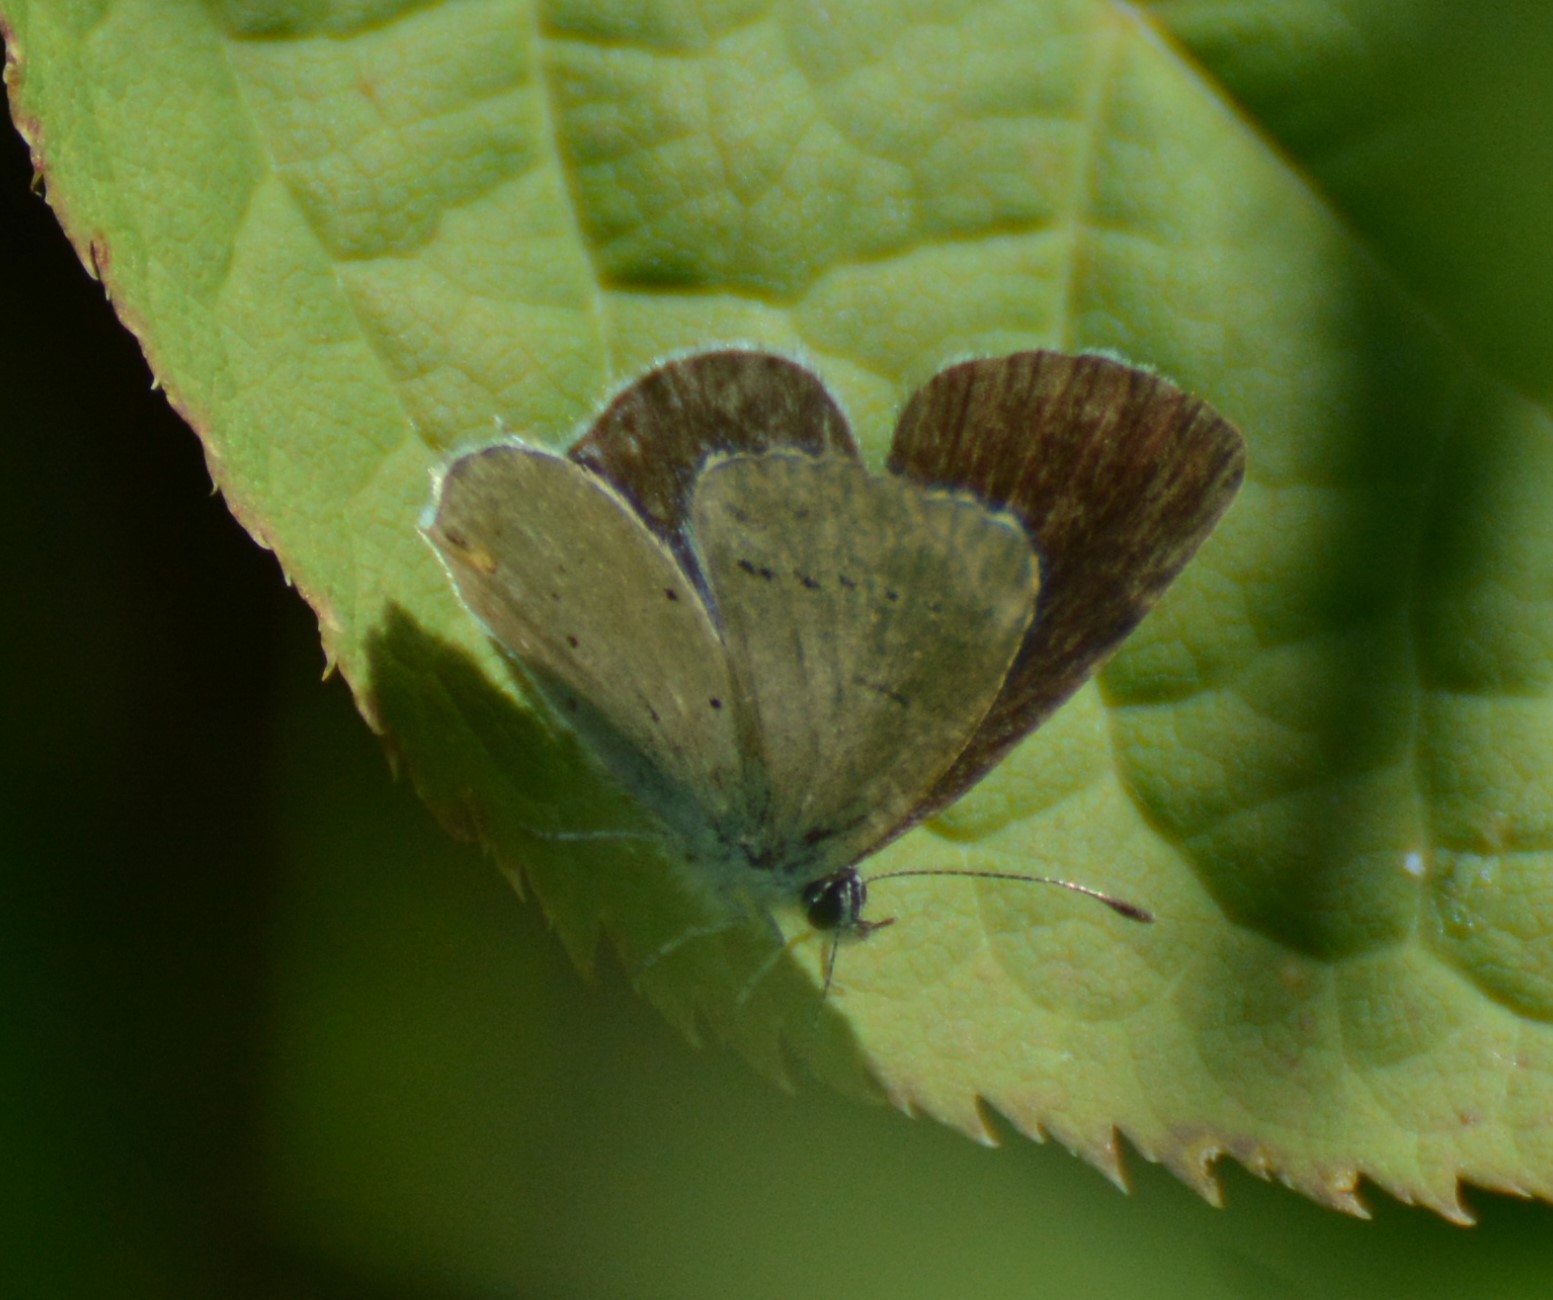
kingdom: Animalia
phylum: Arthropoda
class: Insecta
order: Lepidoptera
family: Lycaenidae
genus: Elkalyce
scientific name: Elkalyce amyntula
